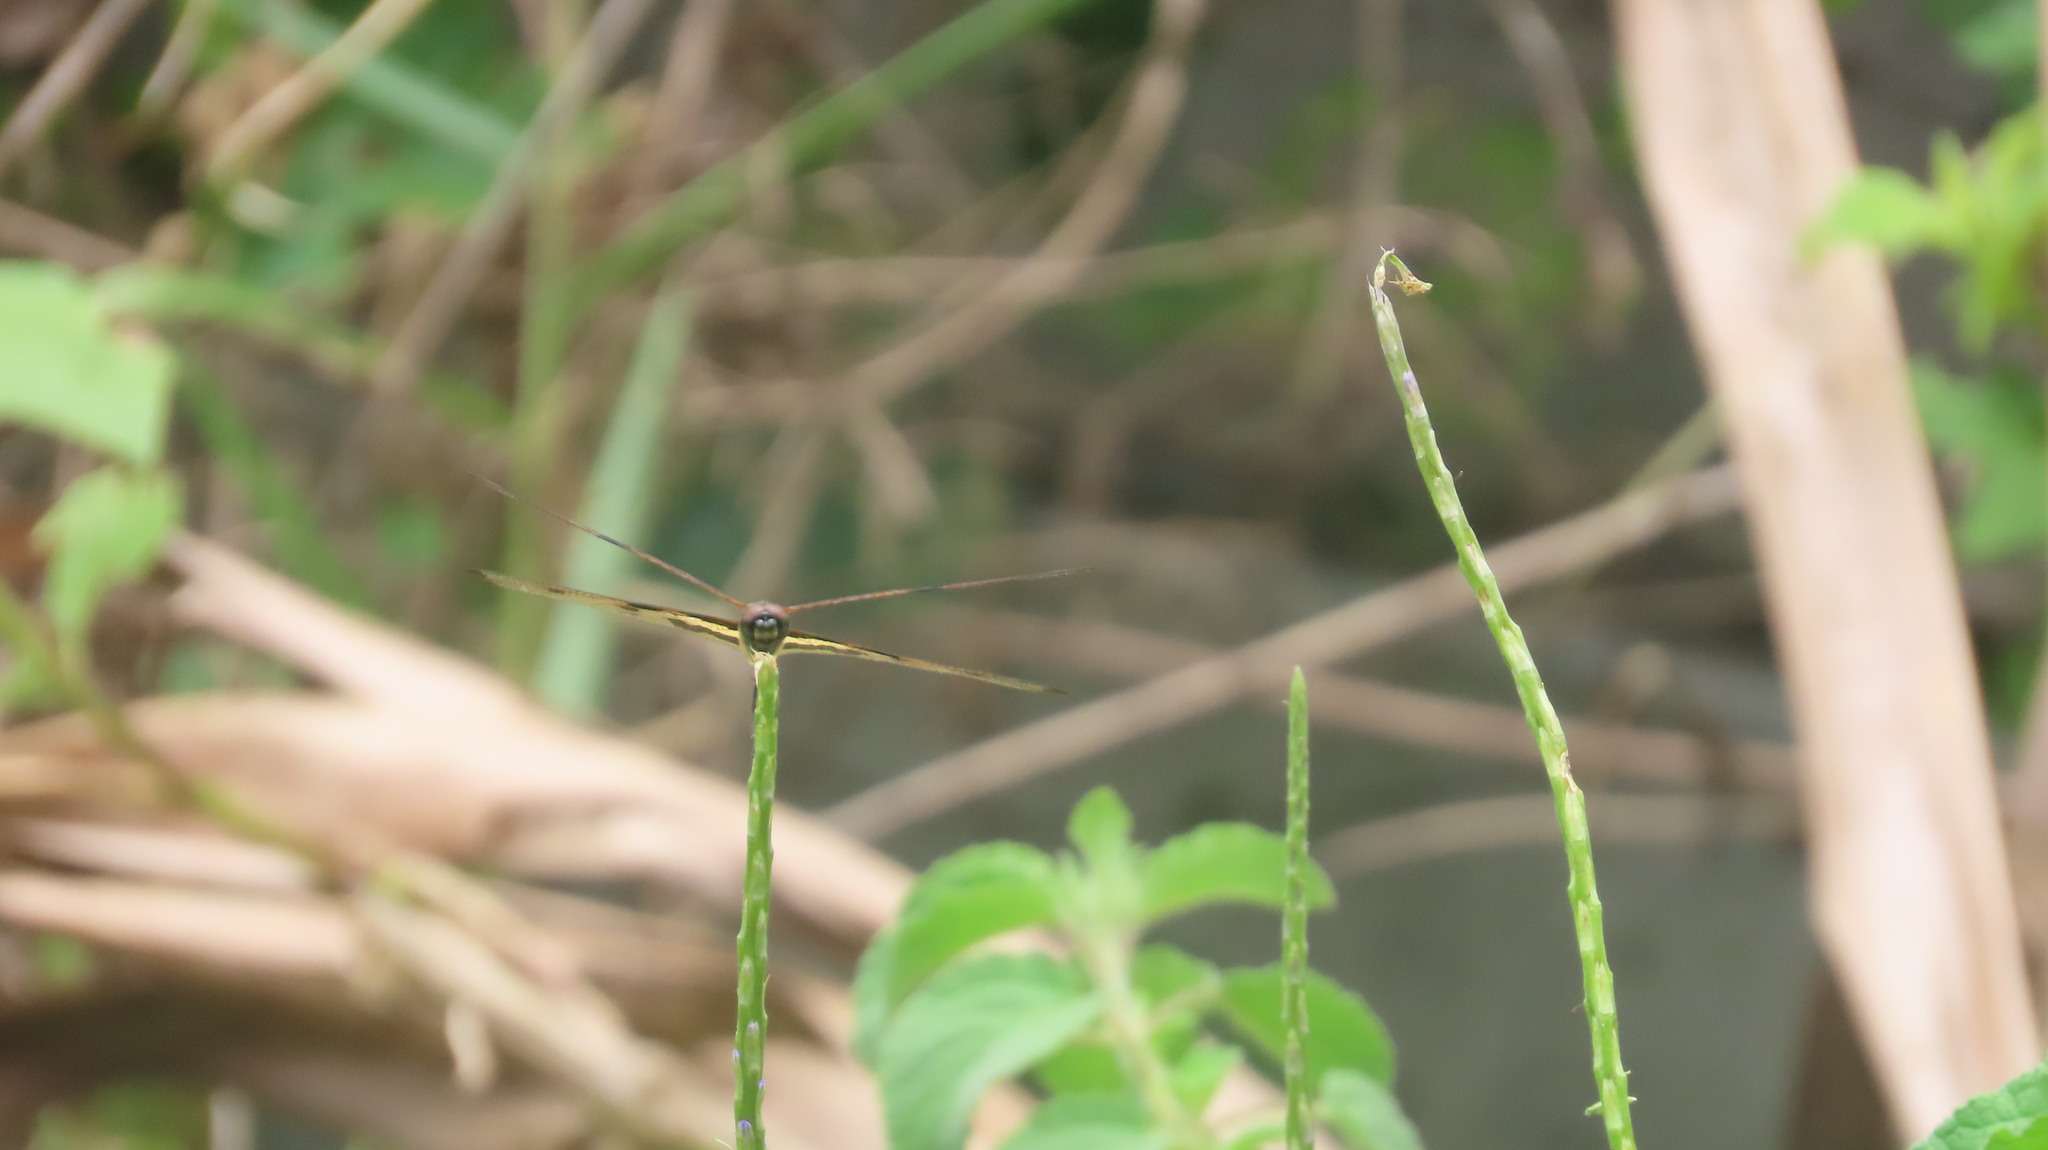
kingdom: Animalia
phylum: Arthropoda
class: Insecta
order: Odonata
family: Libellulidae
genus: Rhyothemis
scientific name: Rhyothemis variegata
